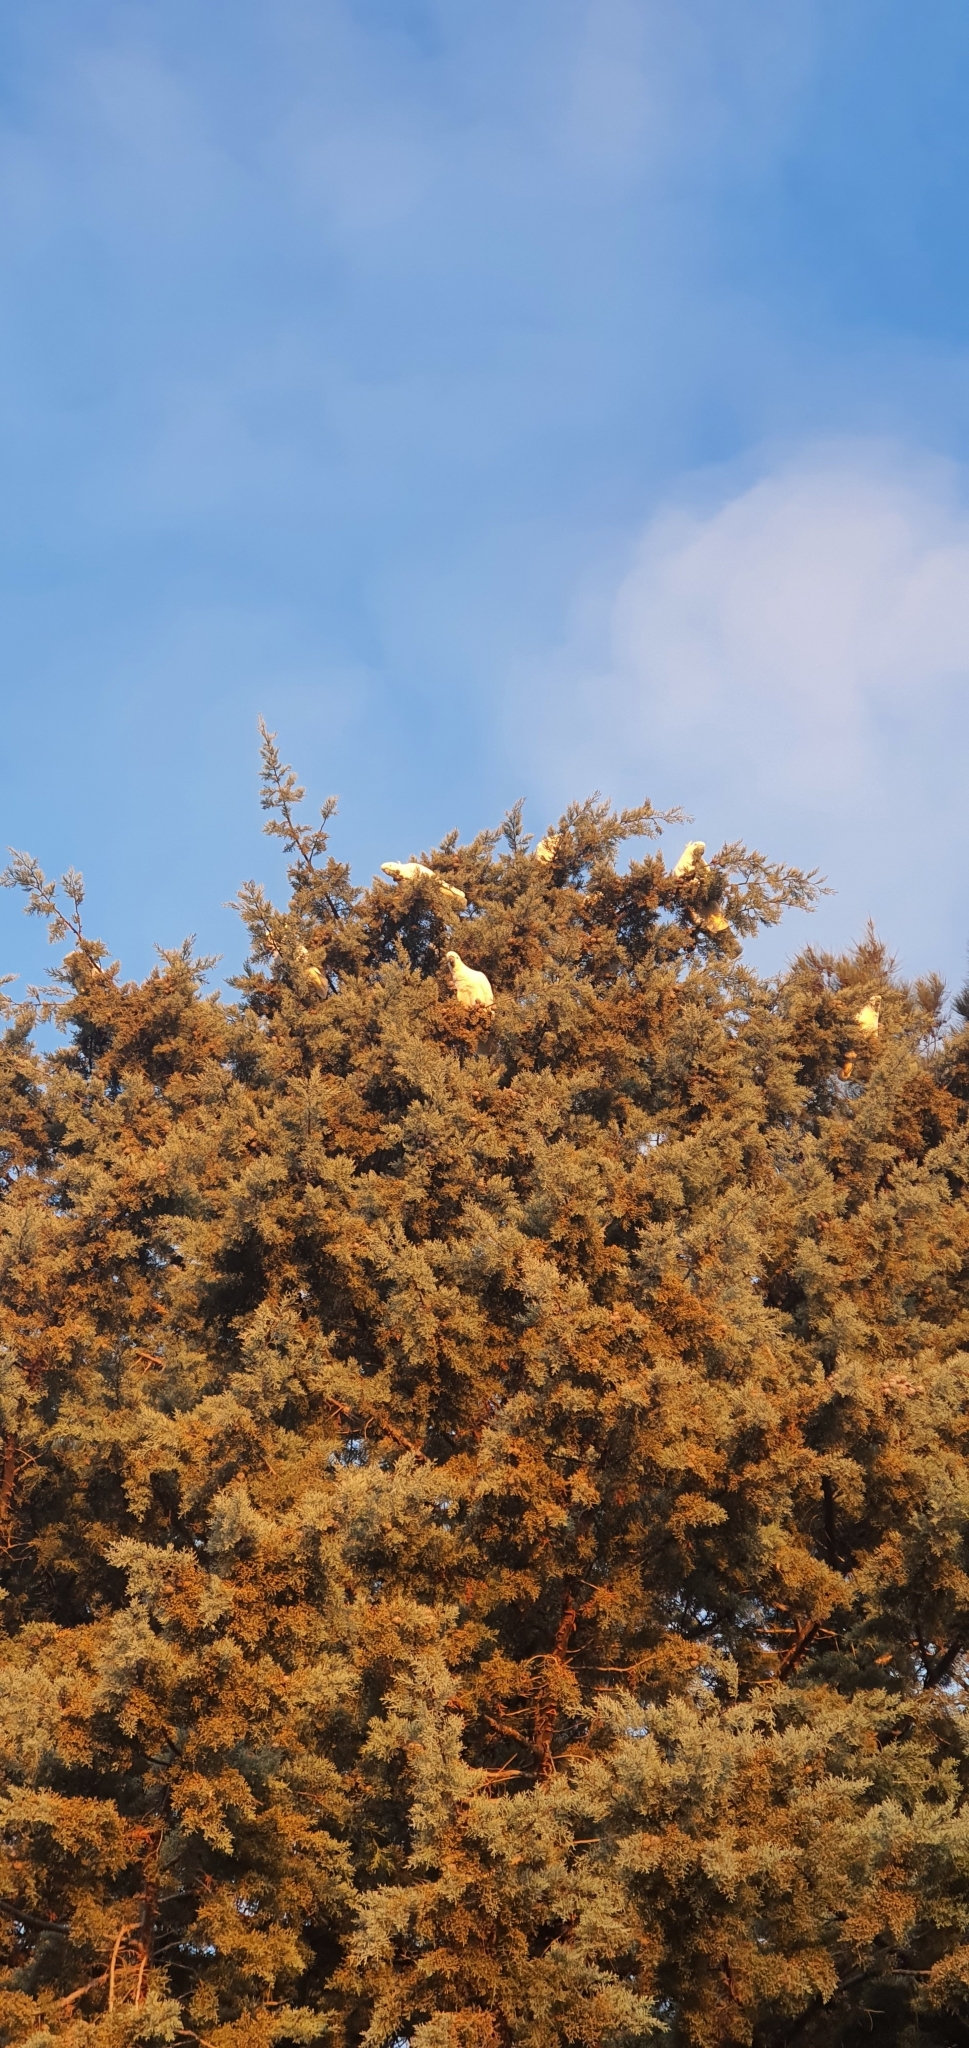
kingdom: Animalia
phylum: Chordata
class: Aves
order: Psittaciformes
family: Psittacidae
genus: Cacatua
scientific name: Cacatua galerita
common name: Sulphur-crested cockatoo
